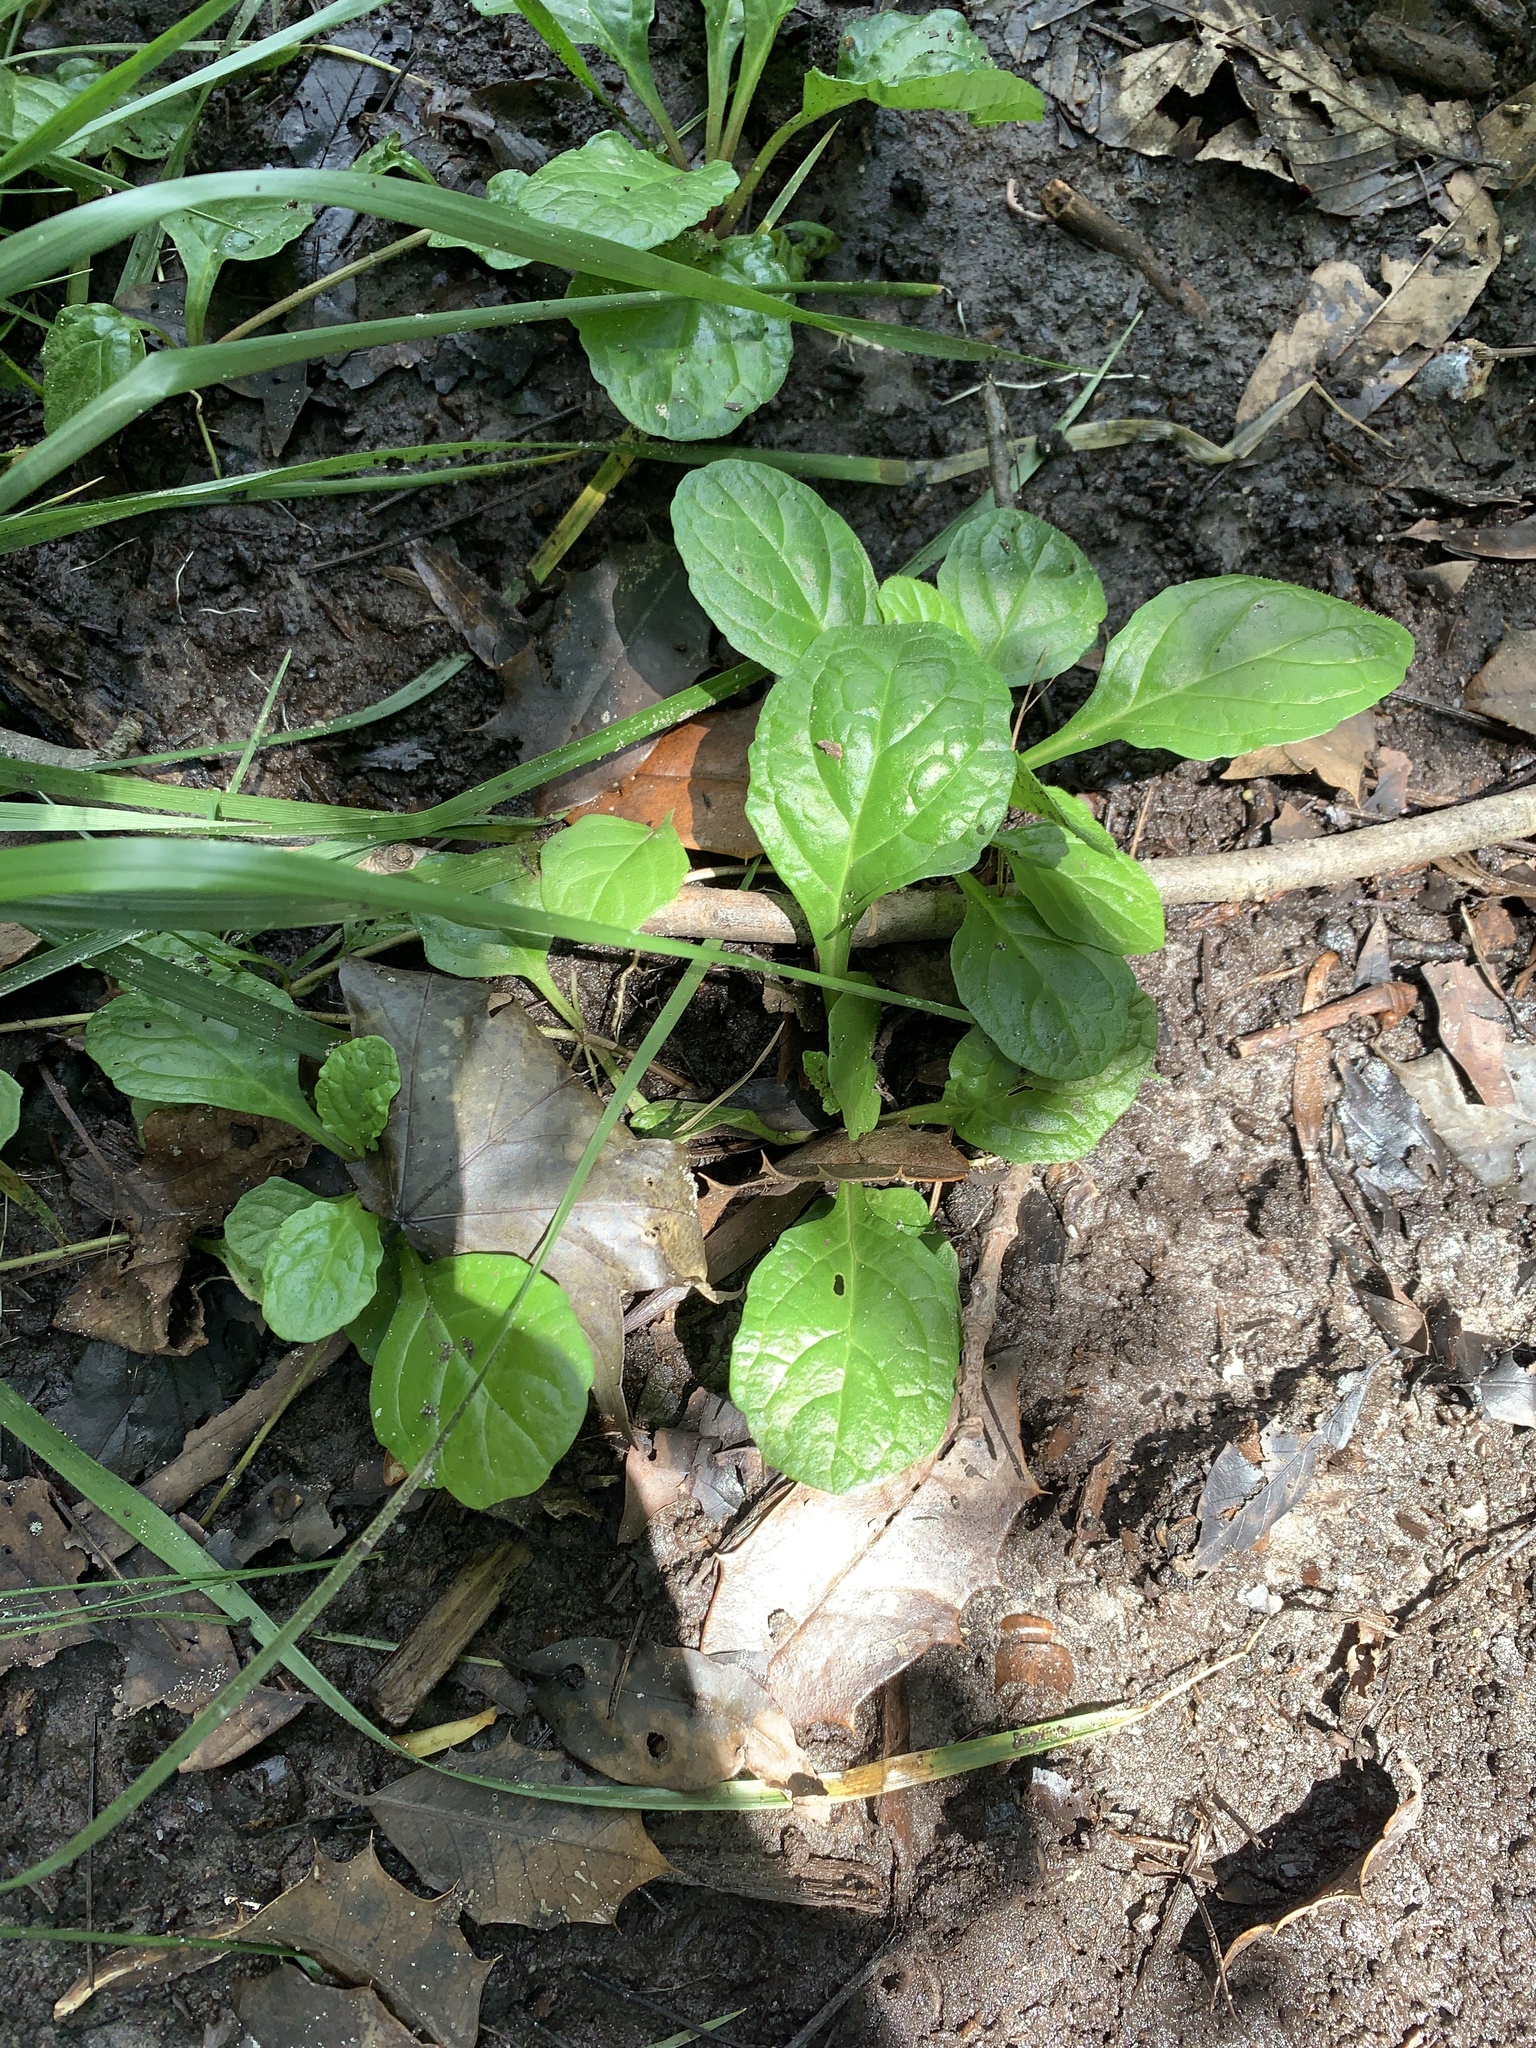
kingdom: Plantae
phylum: Tracheophyta
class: Magnoliopsida
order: Lamiales
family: Lamiaceae
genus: Ajuga
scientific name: Ajuga reptans
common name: Bugle
